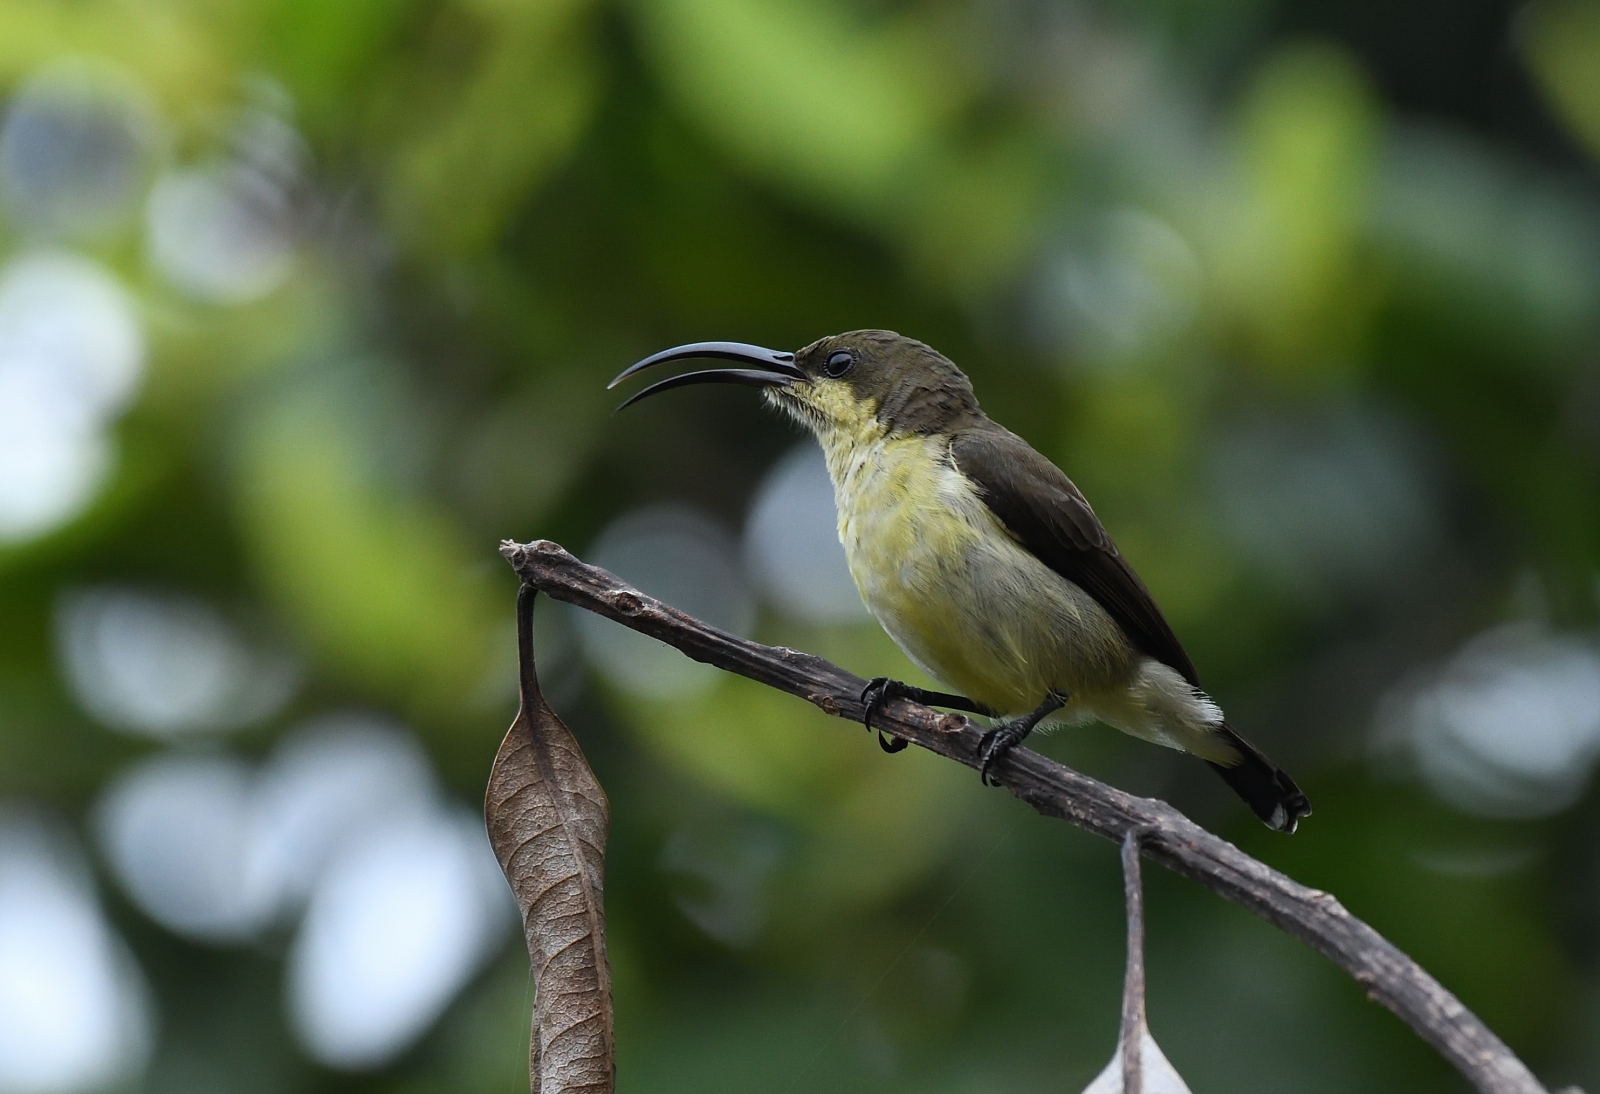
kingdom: Animalia
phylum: Chordata
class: Aves
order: Passeriformes
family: Nectariniidae
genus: Cinnyris
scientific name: Cinnyris lotenius
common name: Loten's sunbird
